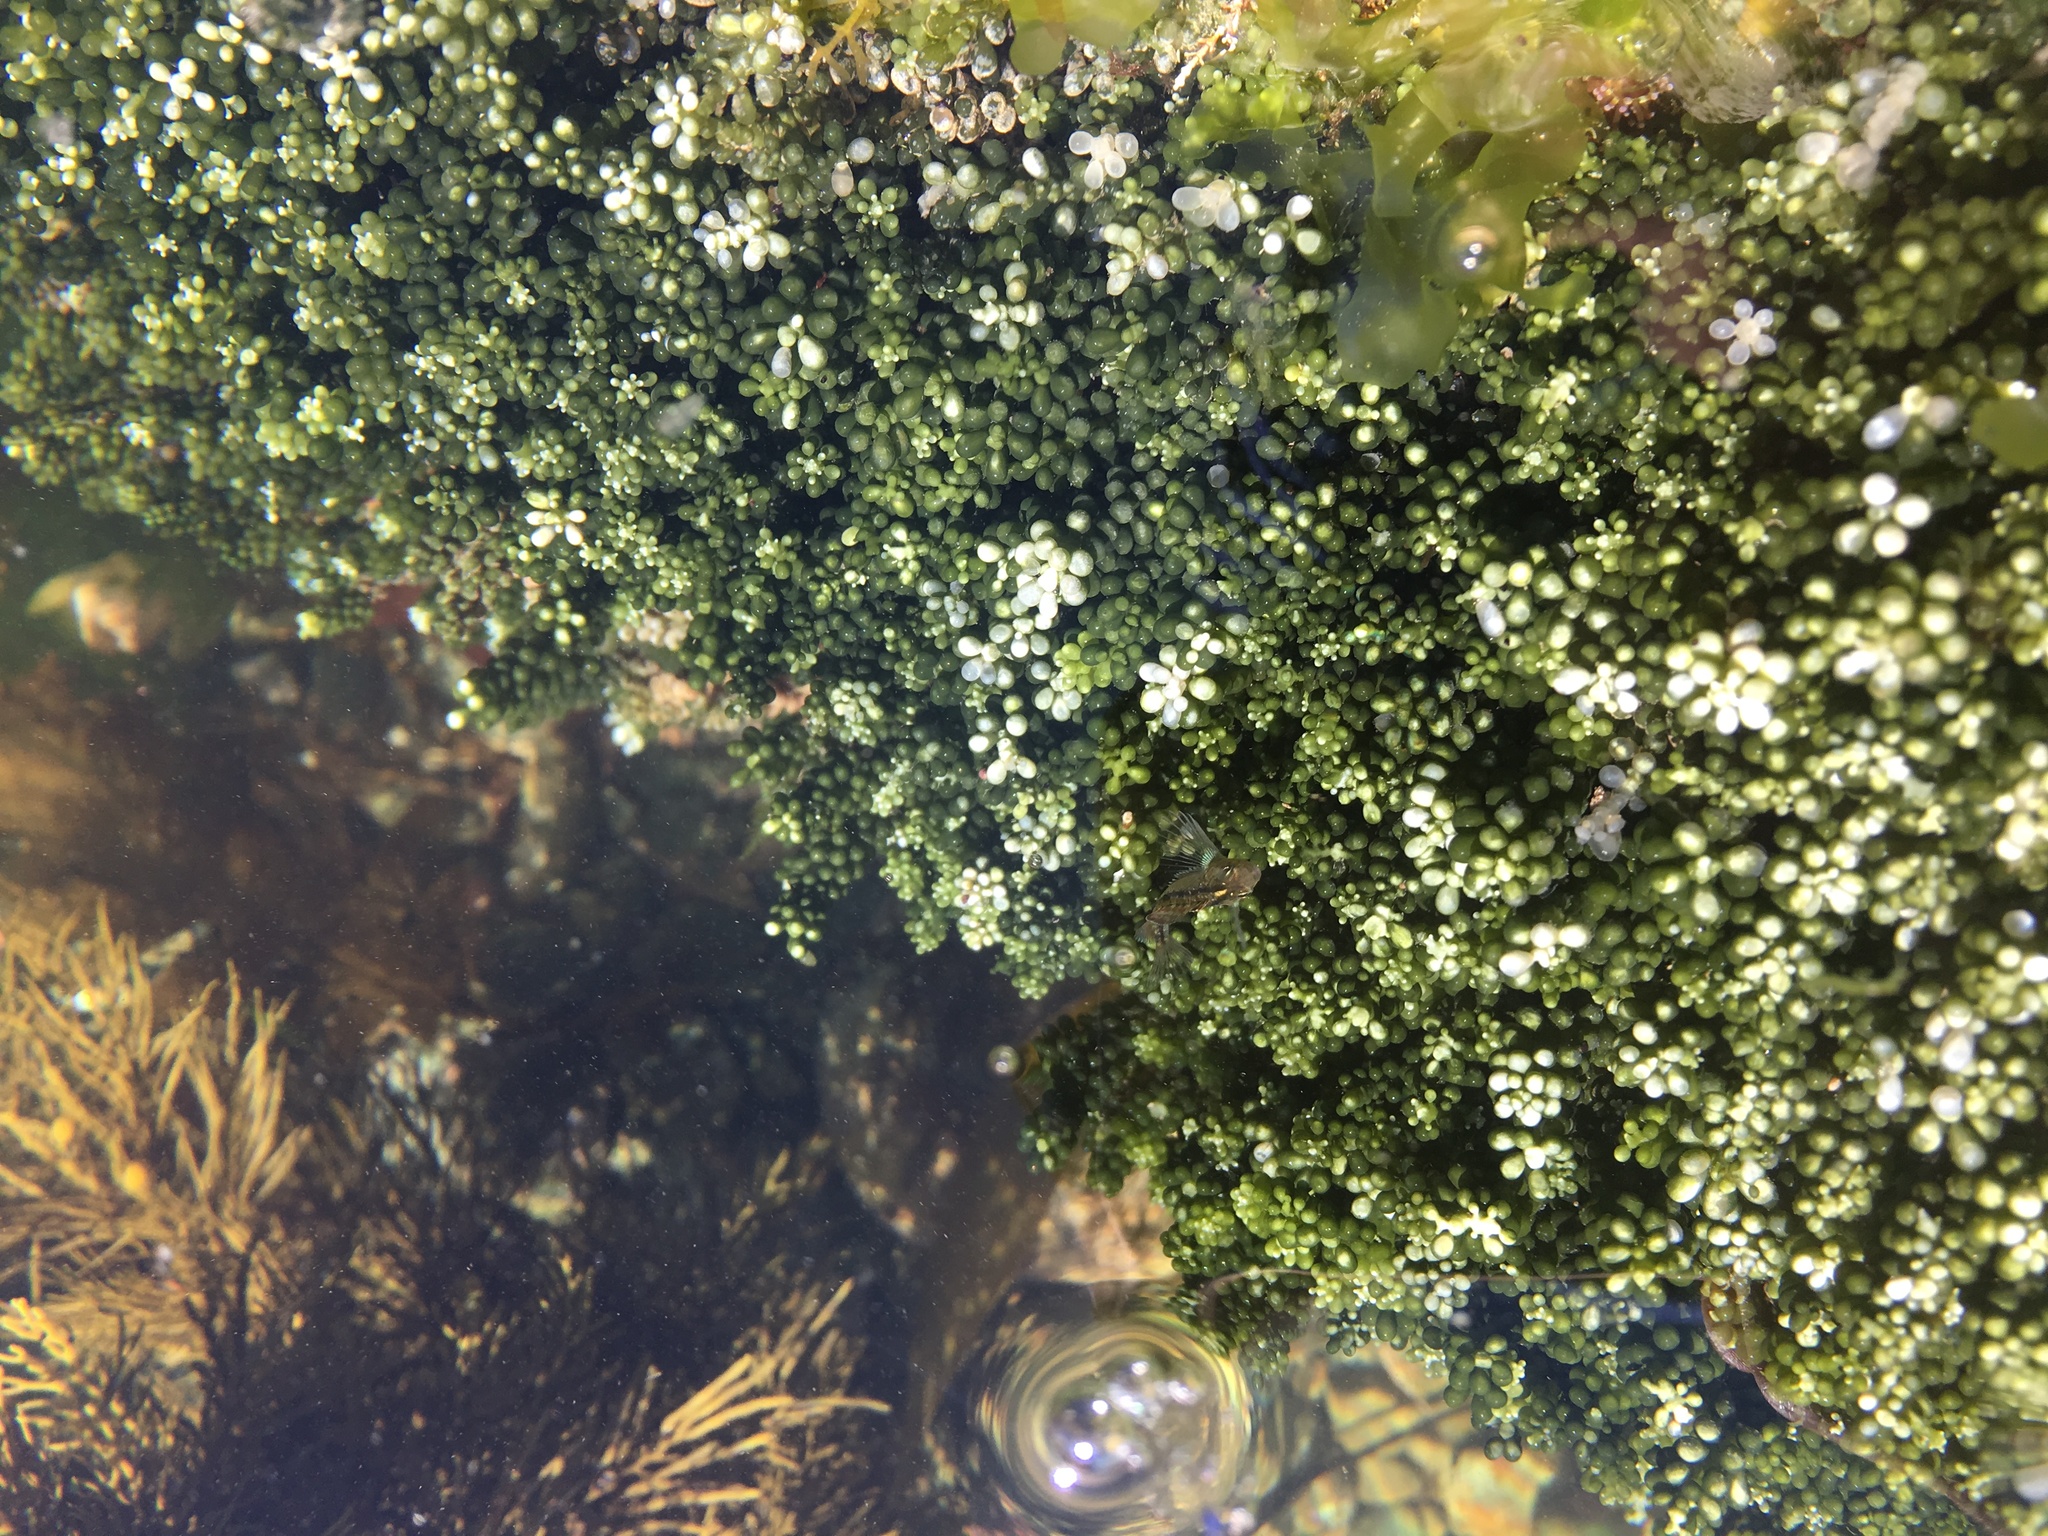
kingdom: Animalia
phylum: Chordata
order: Perciformes
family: Tripterygiidae
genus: Forsterygion
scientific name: Forsterygion lapillum
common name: Common triplefin
